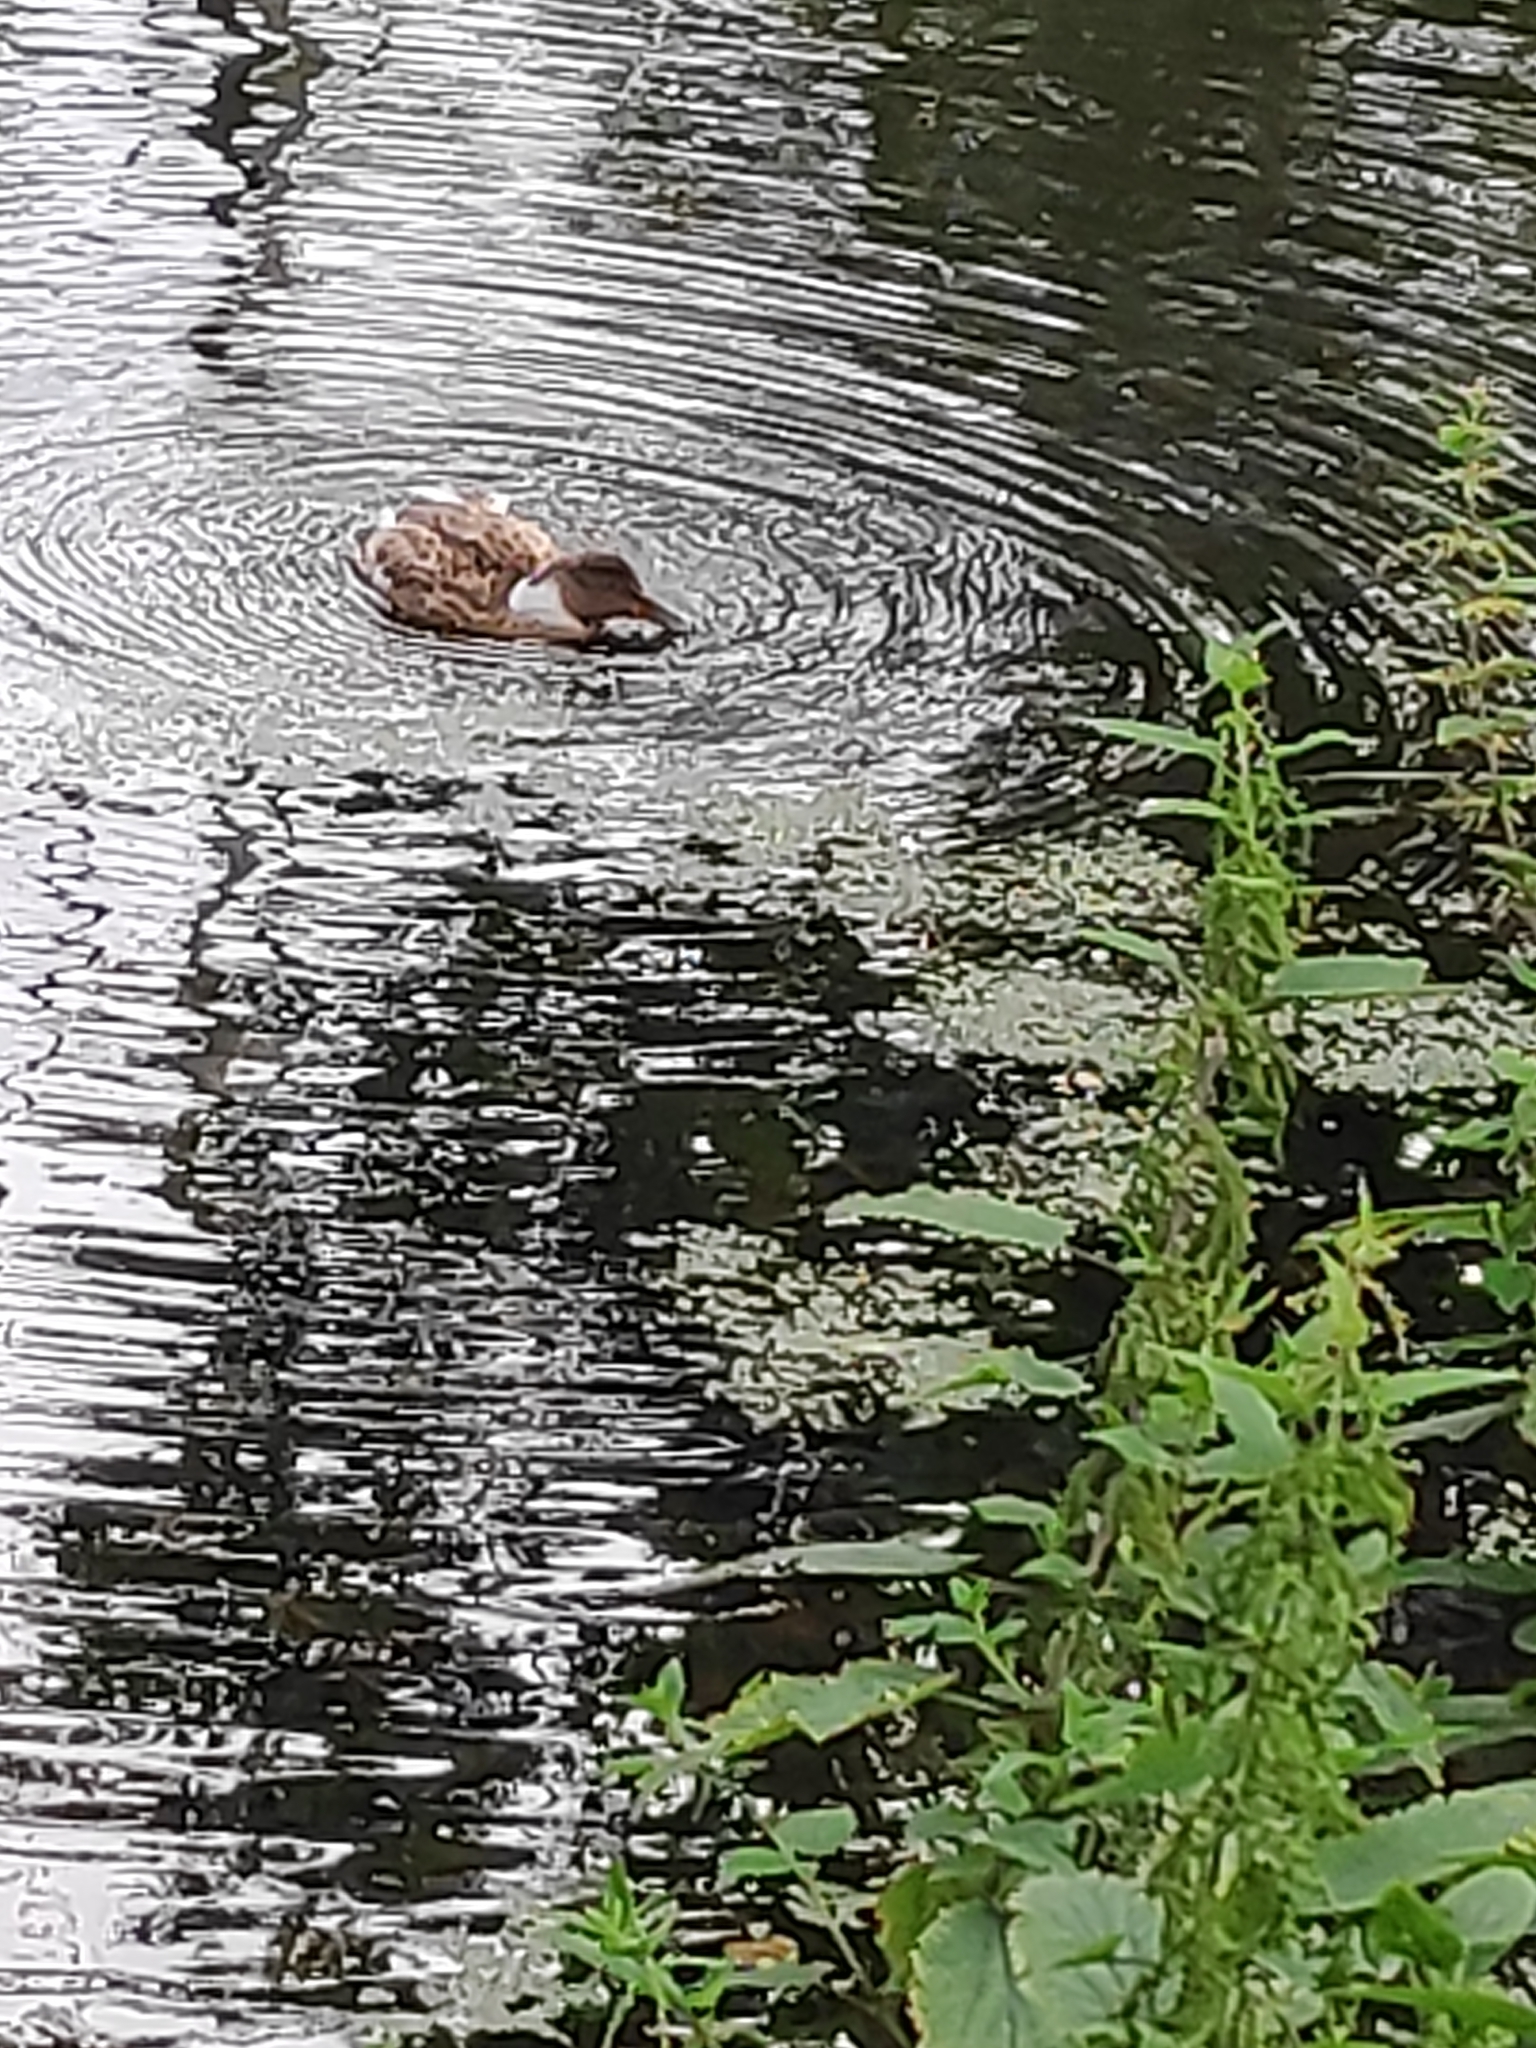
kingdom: Animalia
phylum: Chordata
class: Aves
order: Anseriformes
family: Anatidae
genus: Anas
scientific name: Anas platyrhynchos
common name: Mallard
